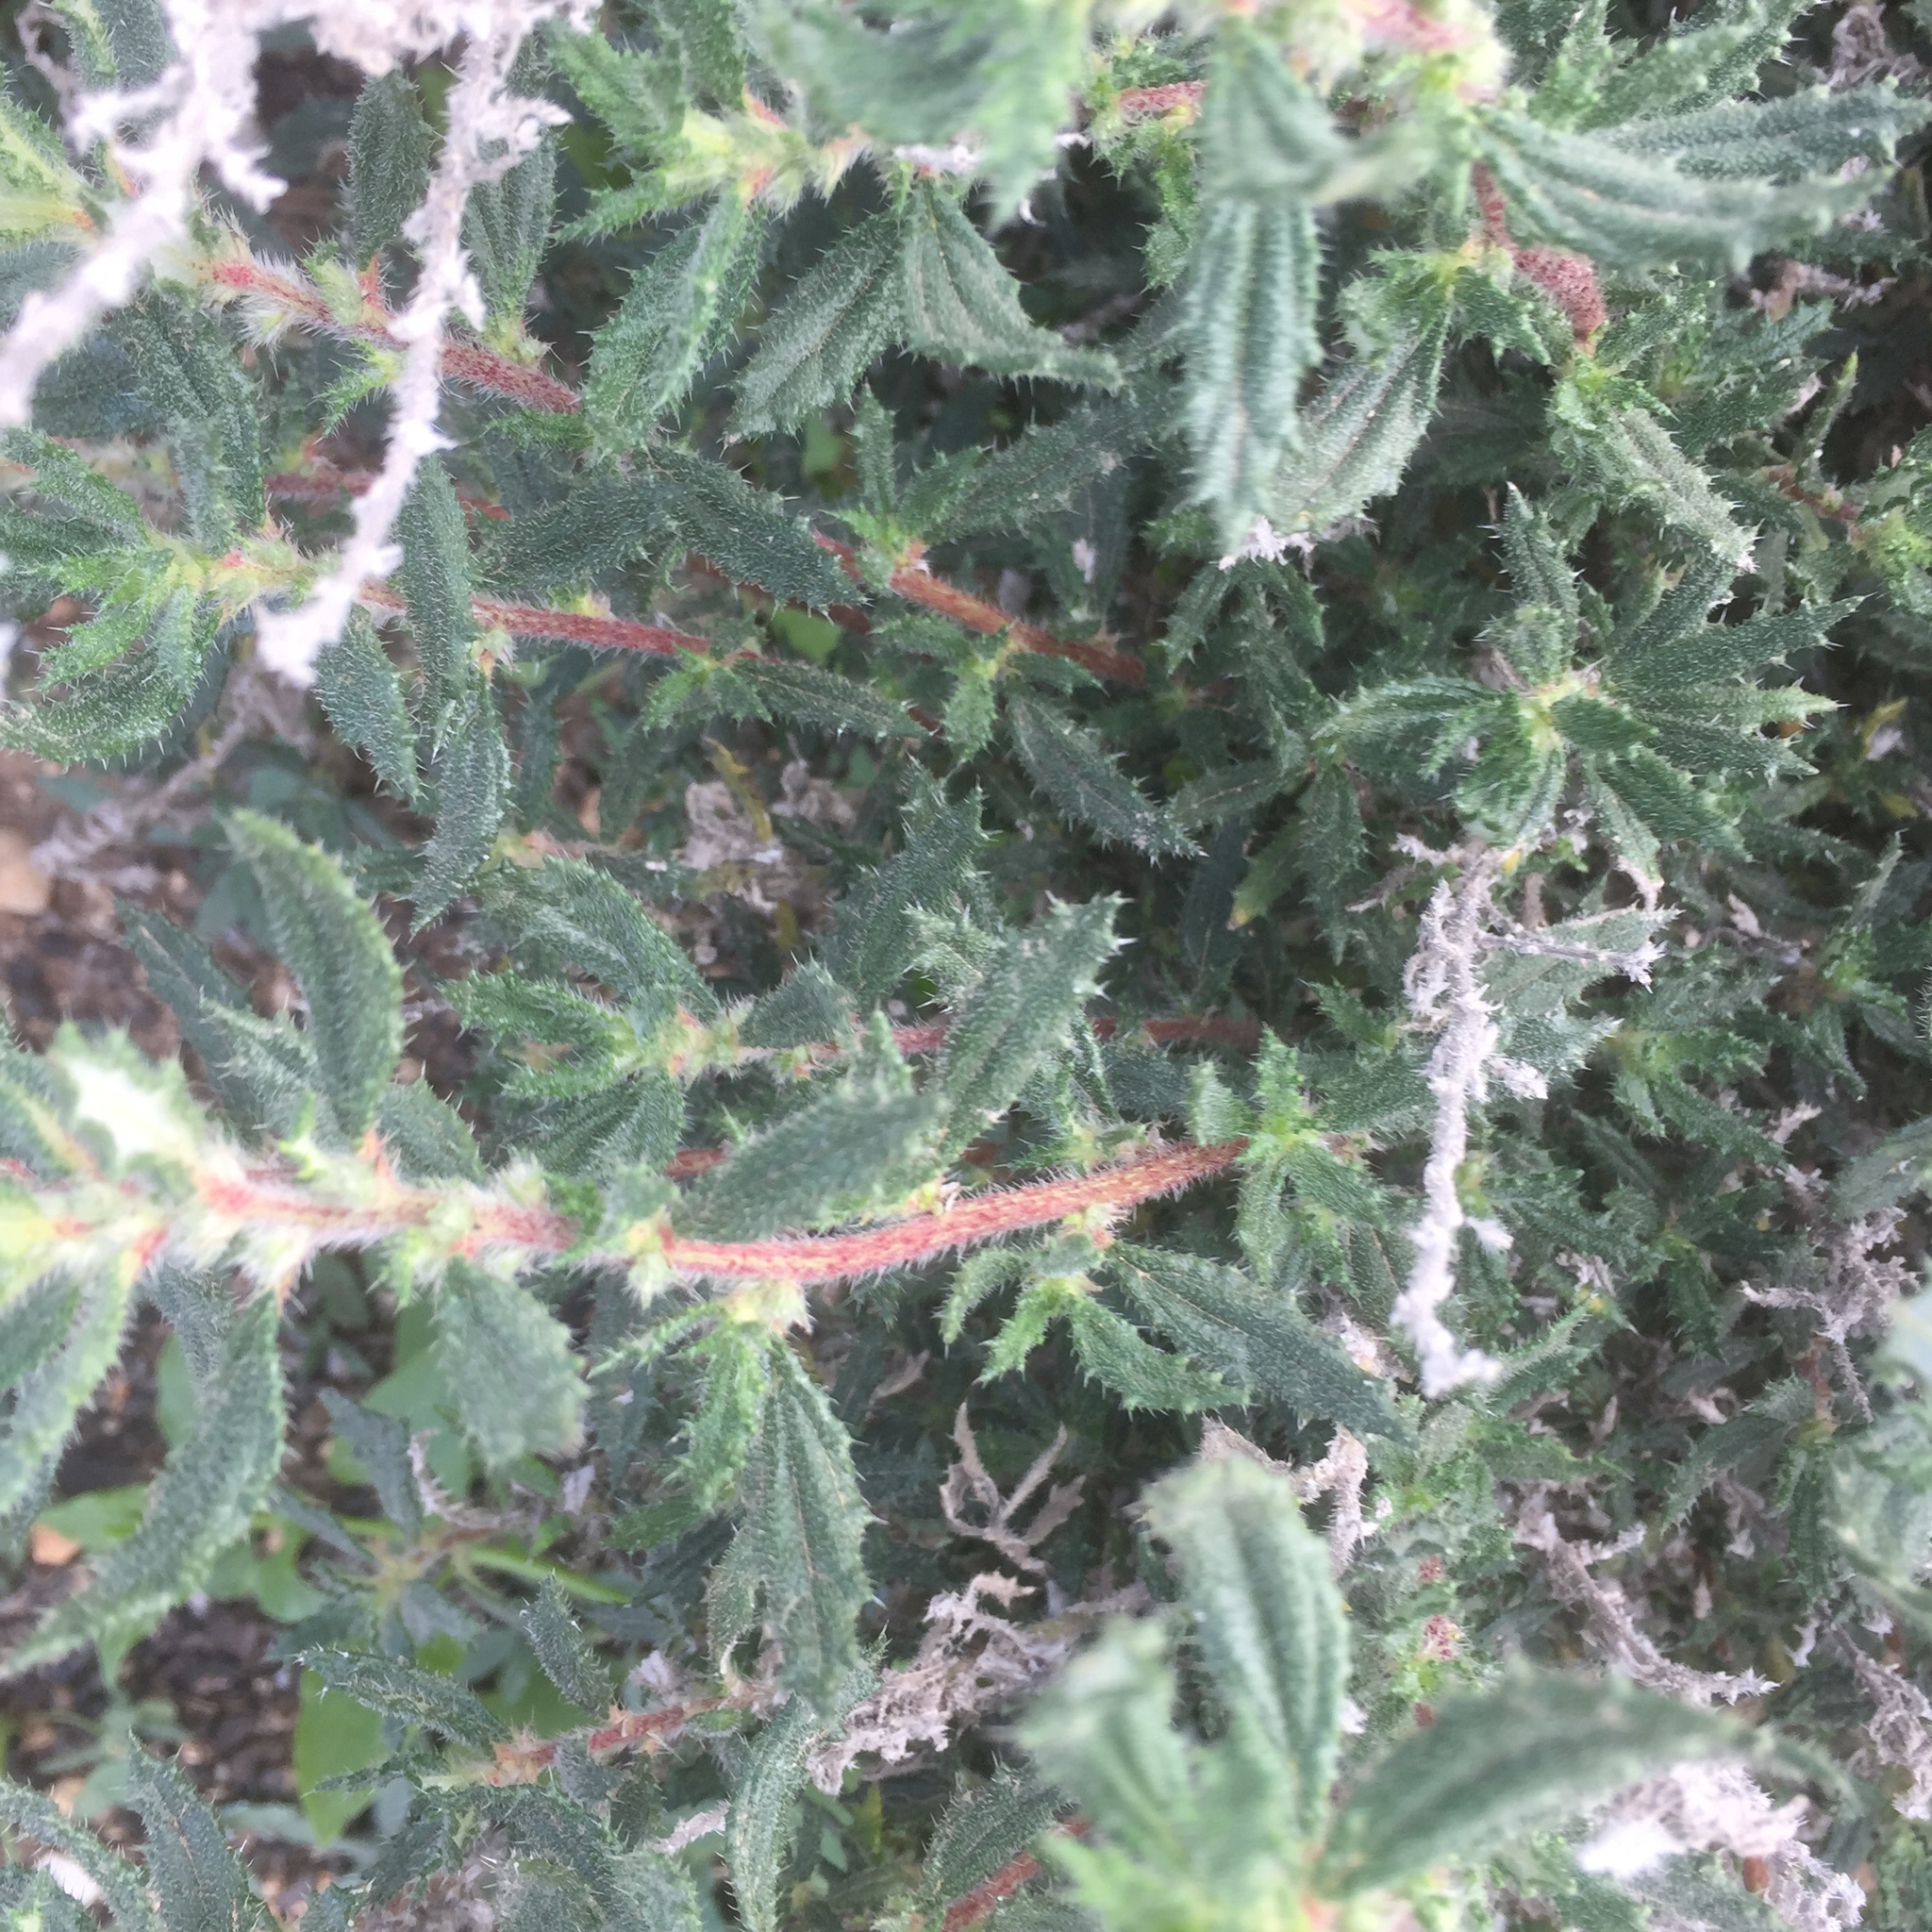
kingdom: Plantae
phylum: Tracheophyta
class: Magnoliopsida
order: Rosales
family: Urticaceae
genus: Forsskaolea
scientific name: Forsskaolea angustifolia
